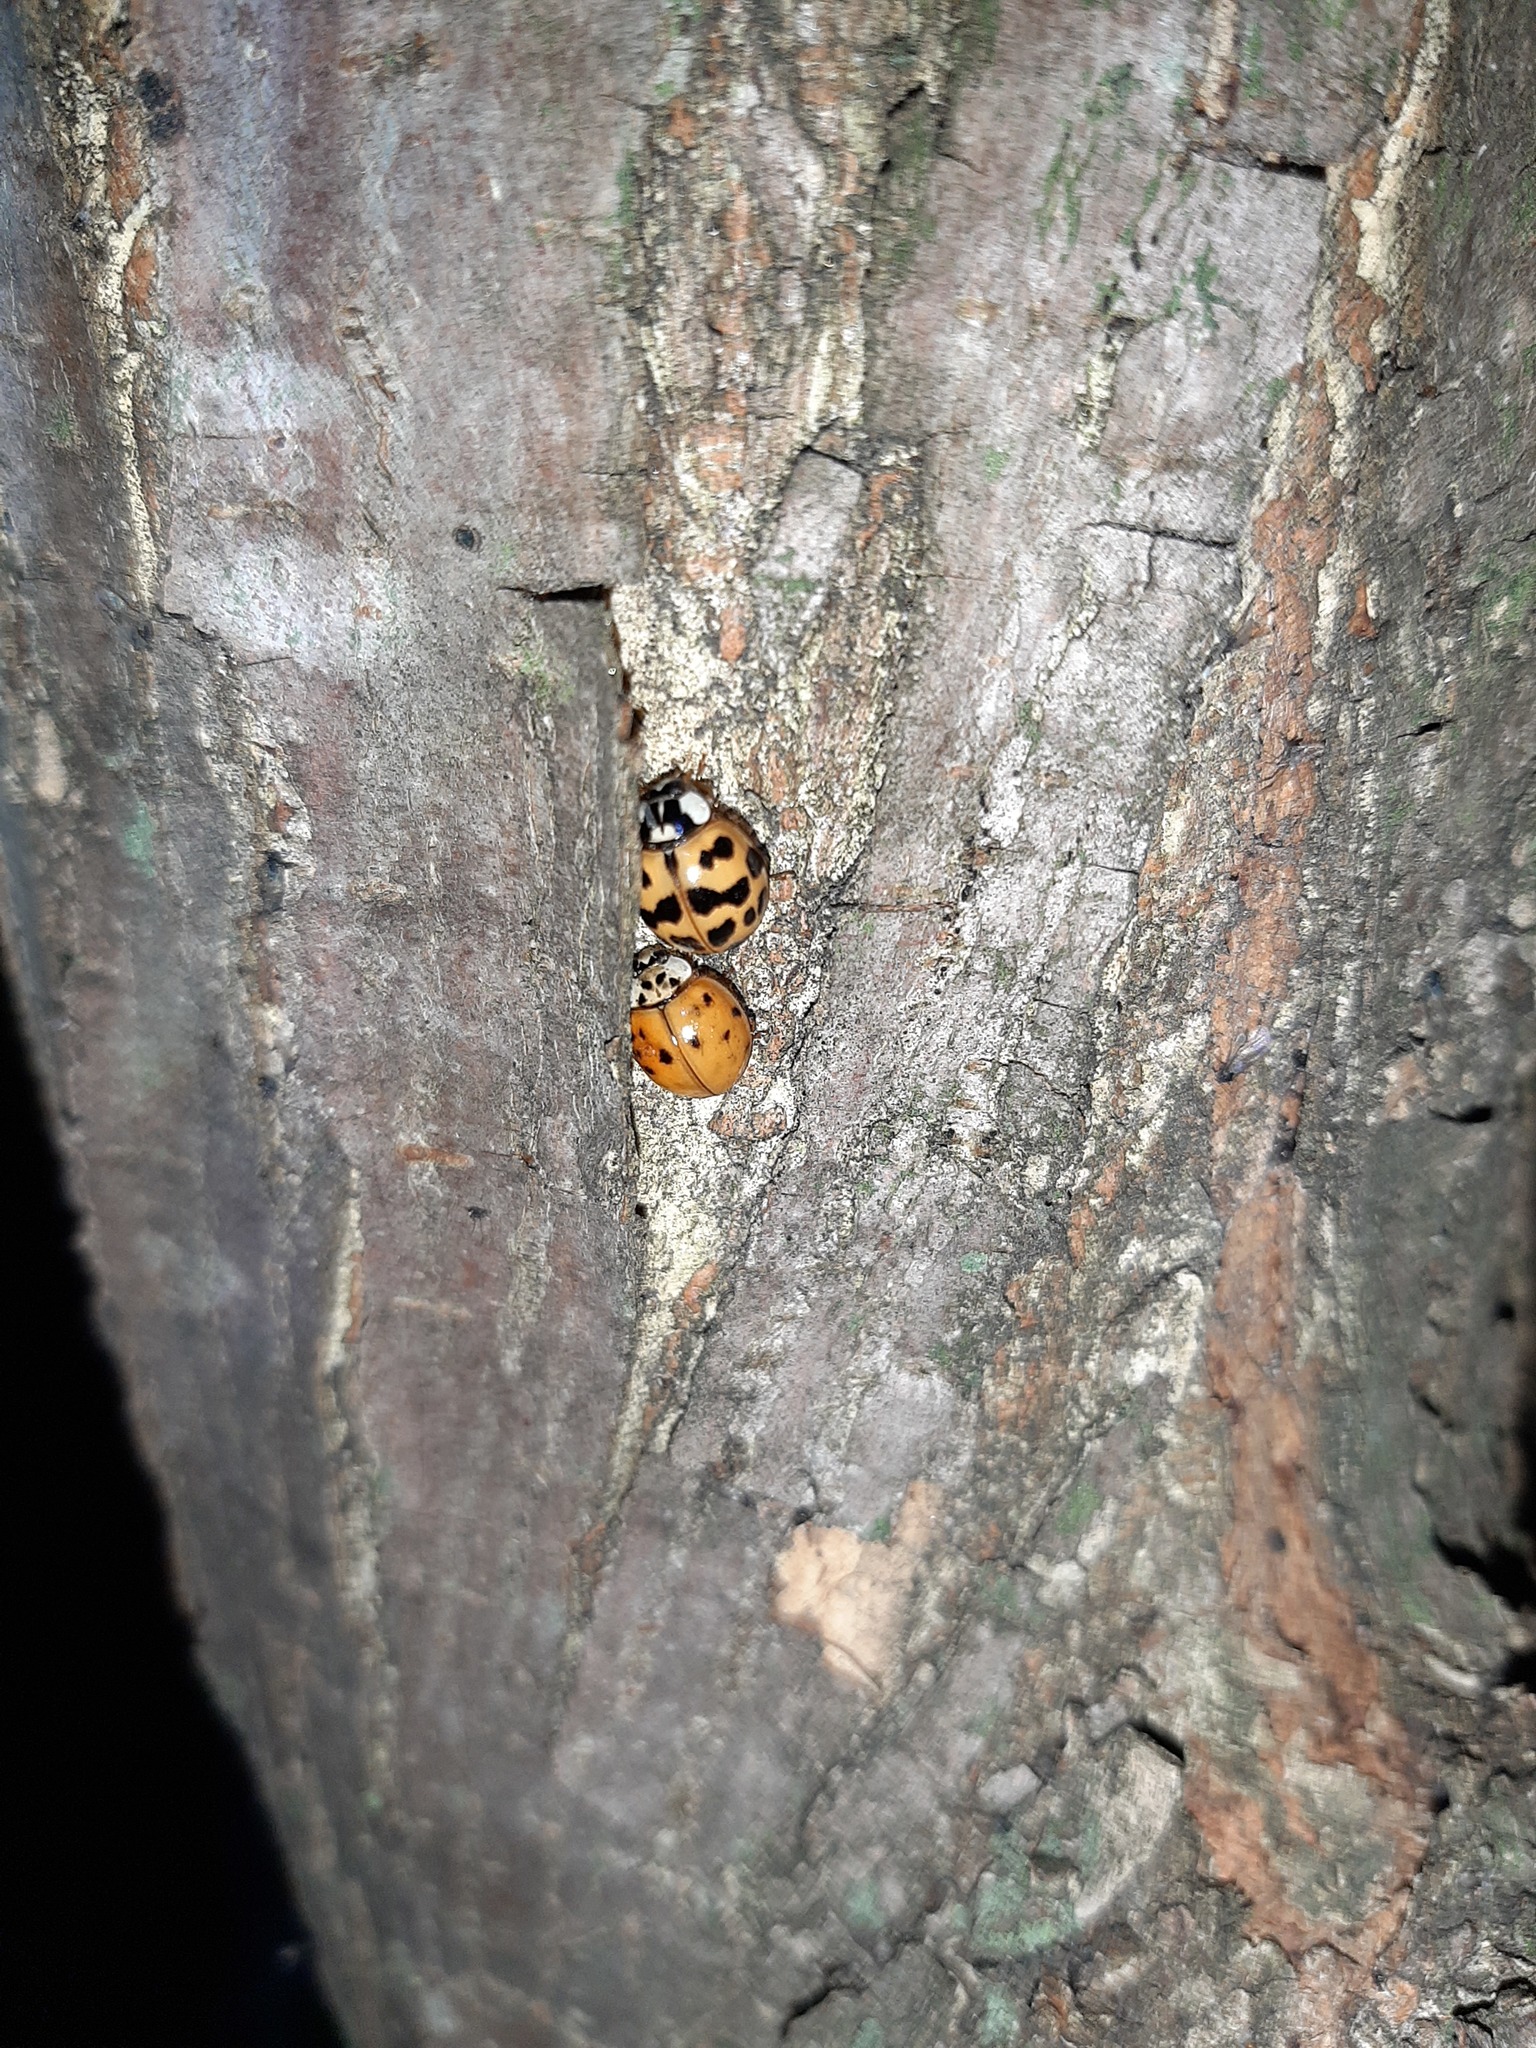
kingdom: Animalia
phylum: Arthropoda
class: Insecta
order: Coleoptera
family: Coccinellidae
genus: Harmonia
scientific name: Harmonia axyridis
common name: Harlequin ladybird
